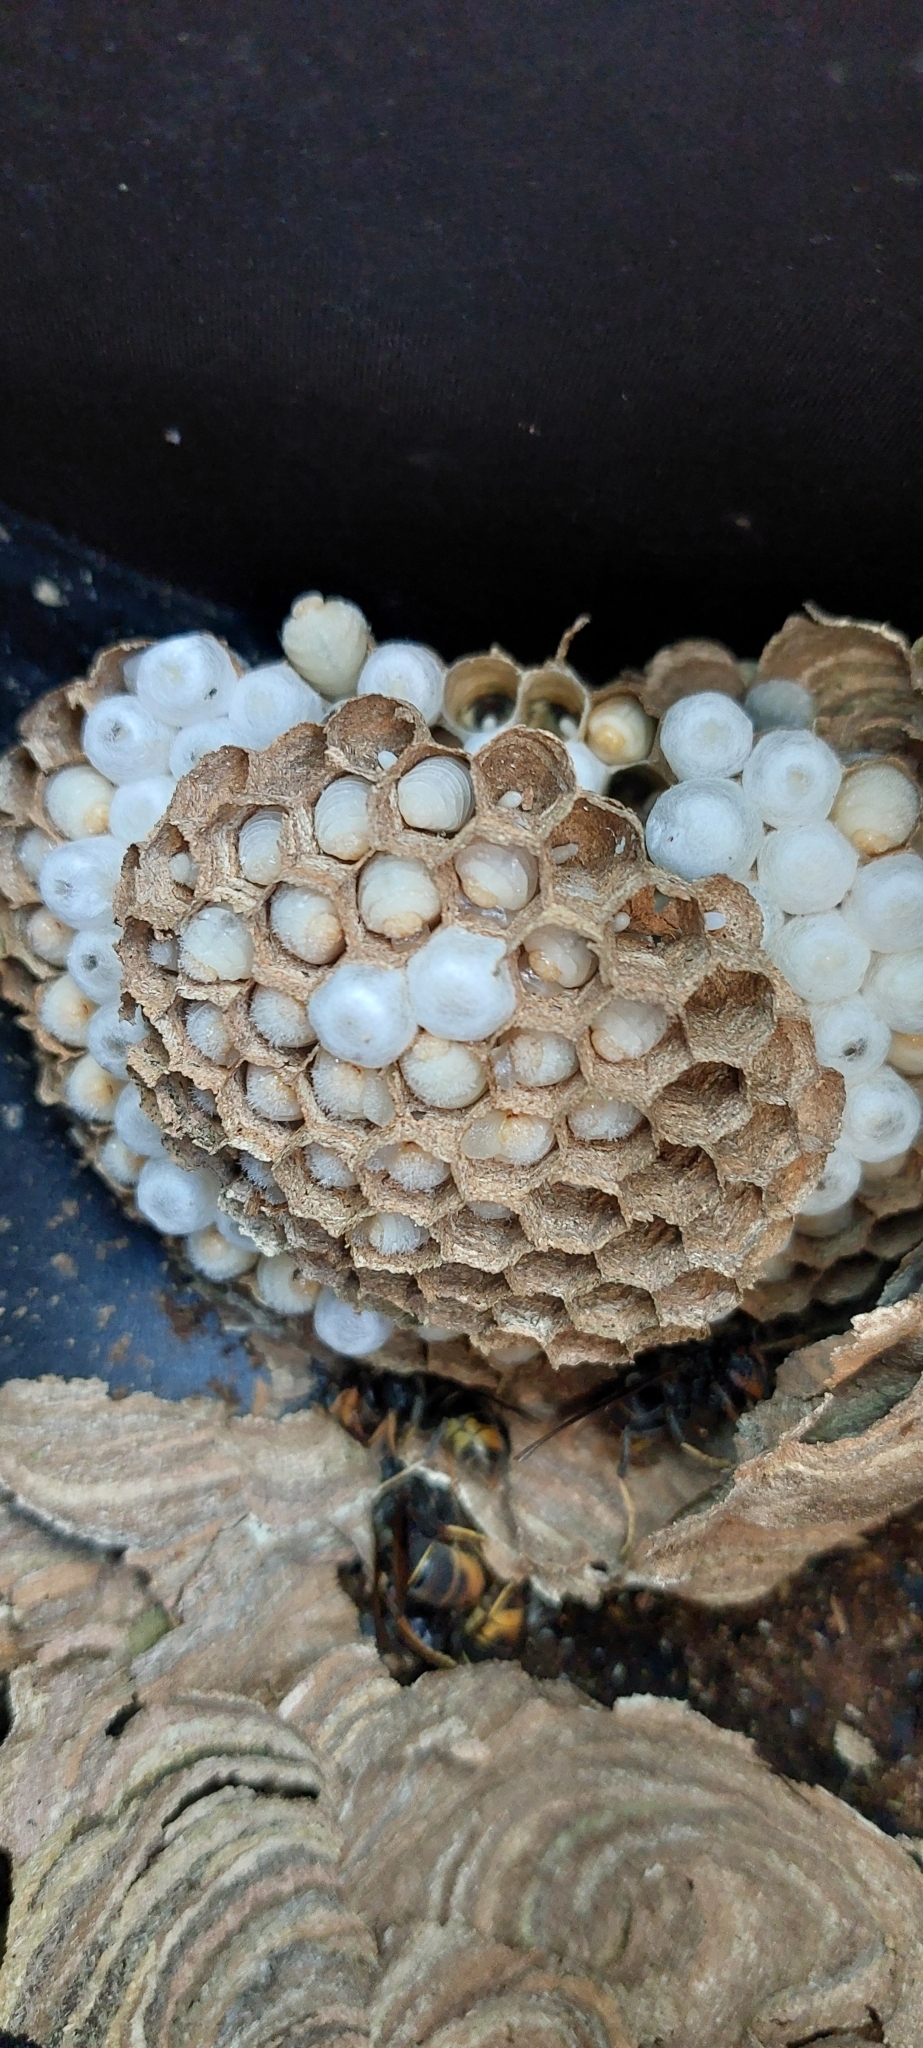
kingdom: Animalia
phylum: Arthropoda
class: Insecta
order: Hymenoptera
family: Vespidae
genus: Vespa
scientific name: Vespa velutina
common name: Asian hornet
